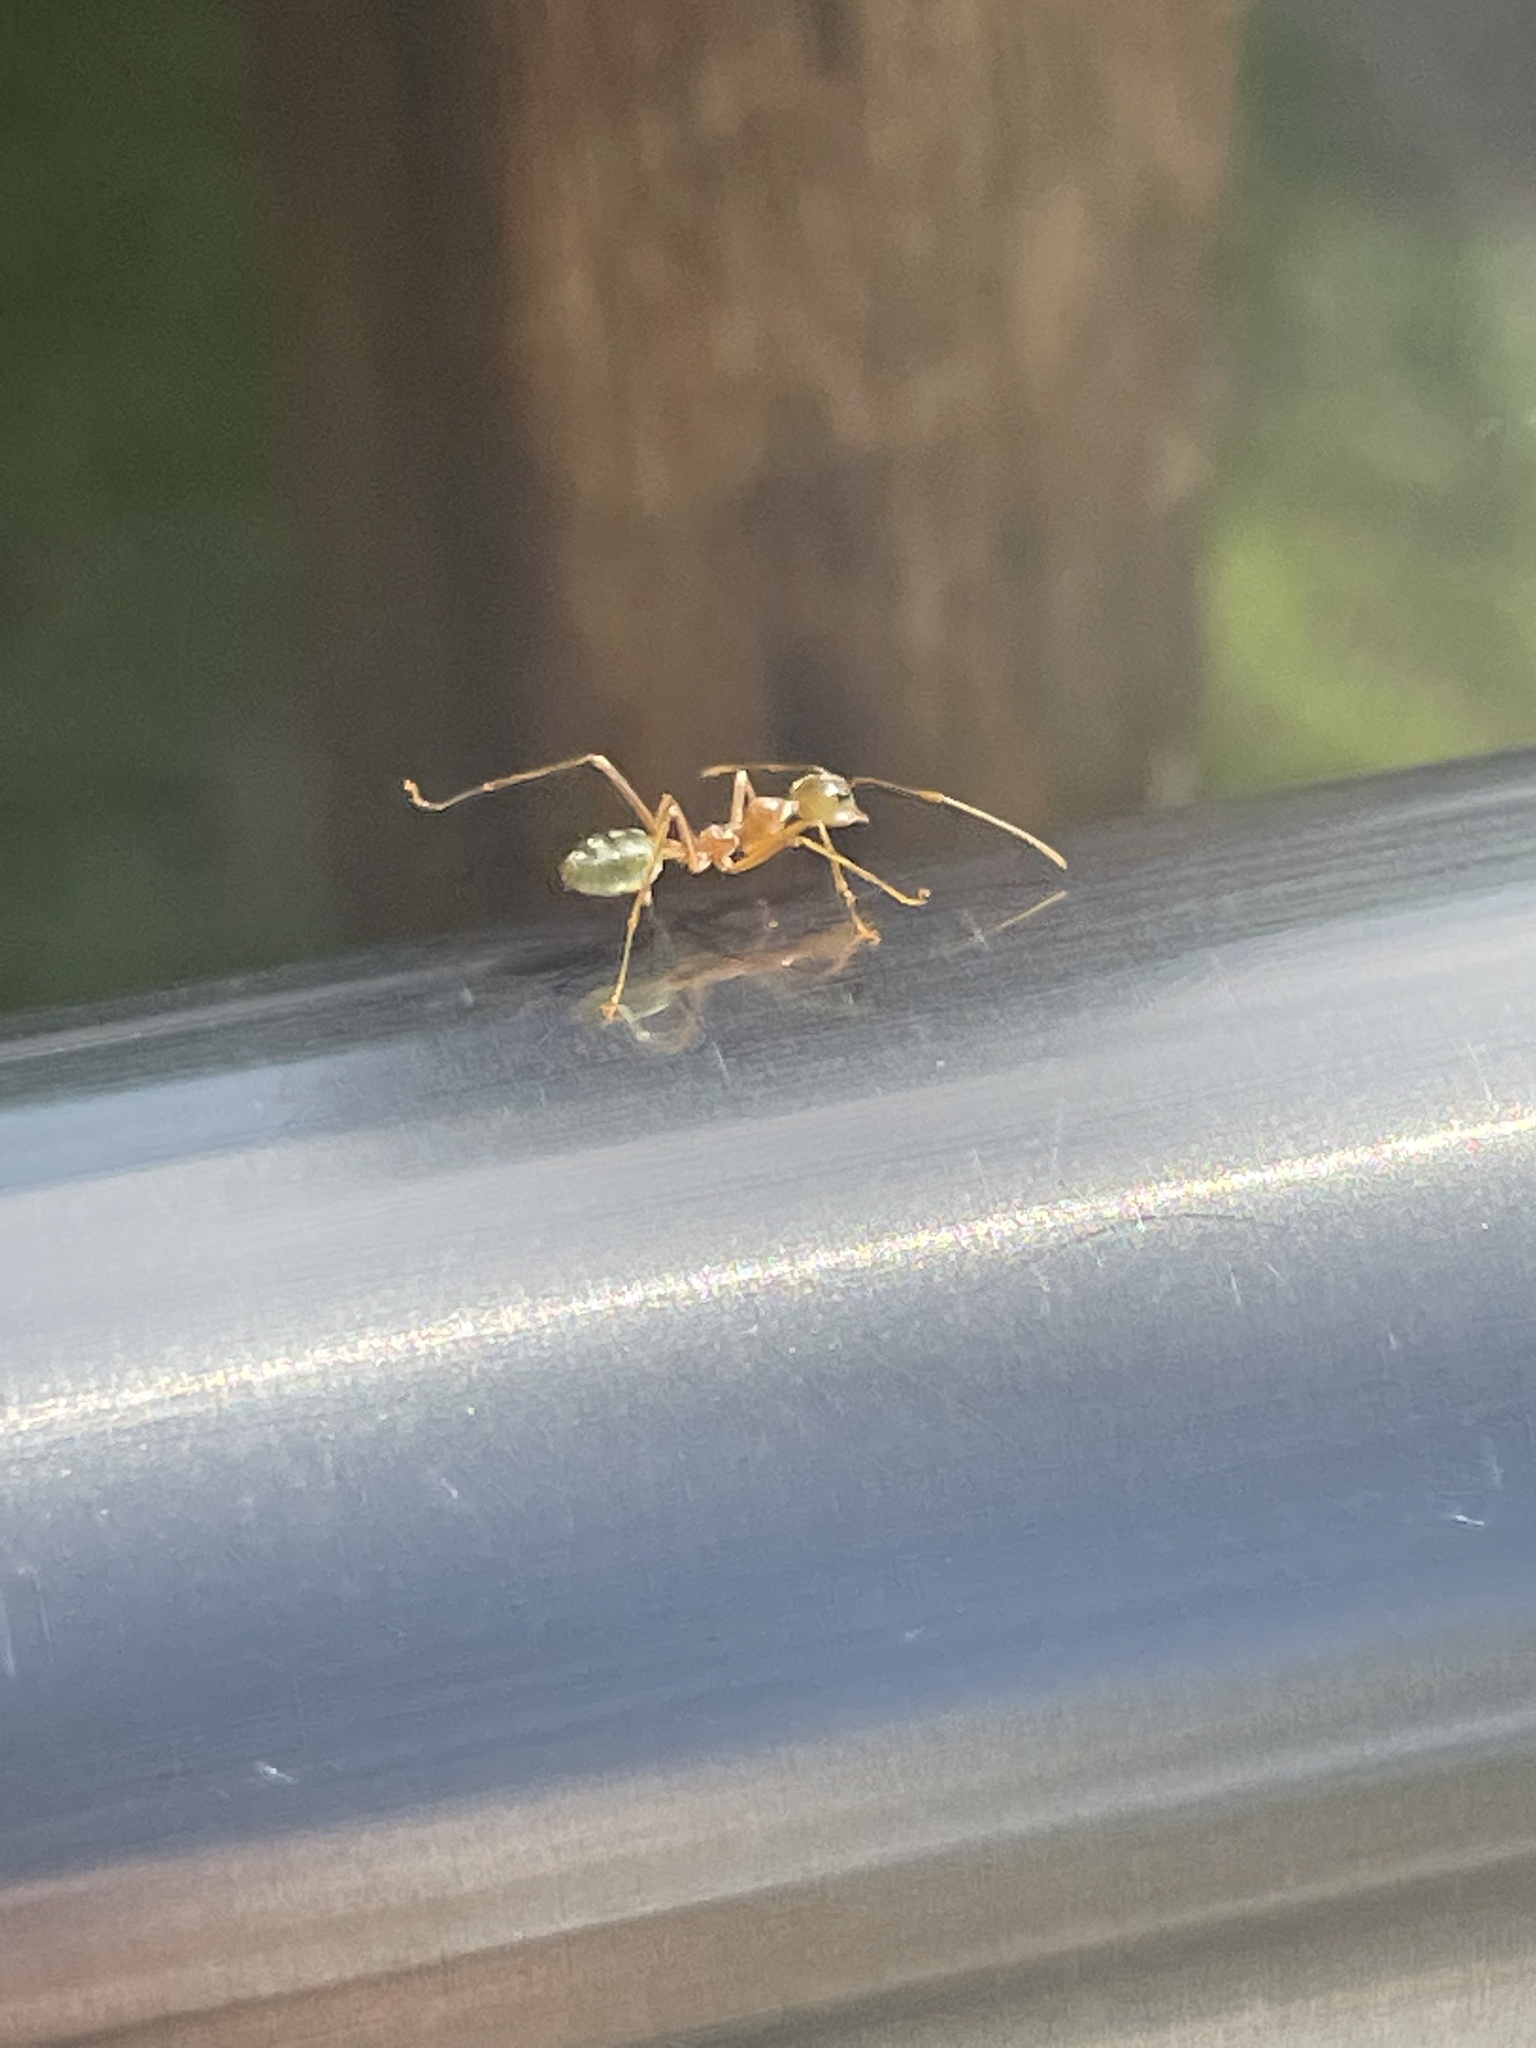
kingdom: Animalia
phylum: Arthropoda
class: Insecta
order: Hymenoptera
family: Formicidae
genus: Oecophylla
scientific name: Oecophylla smaragdina
